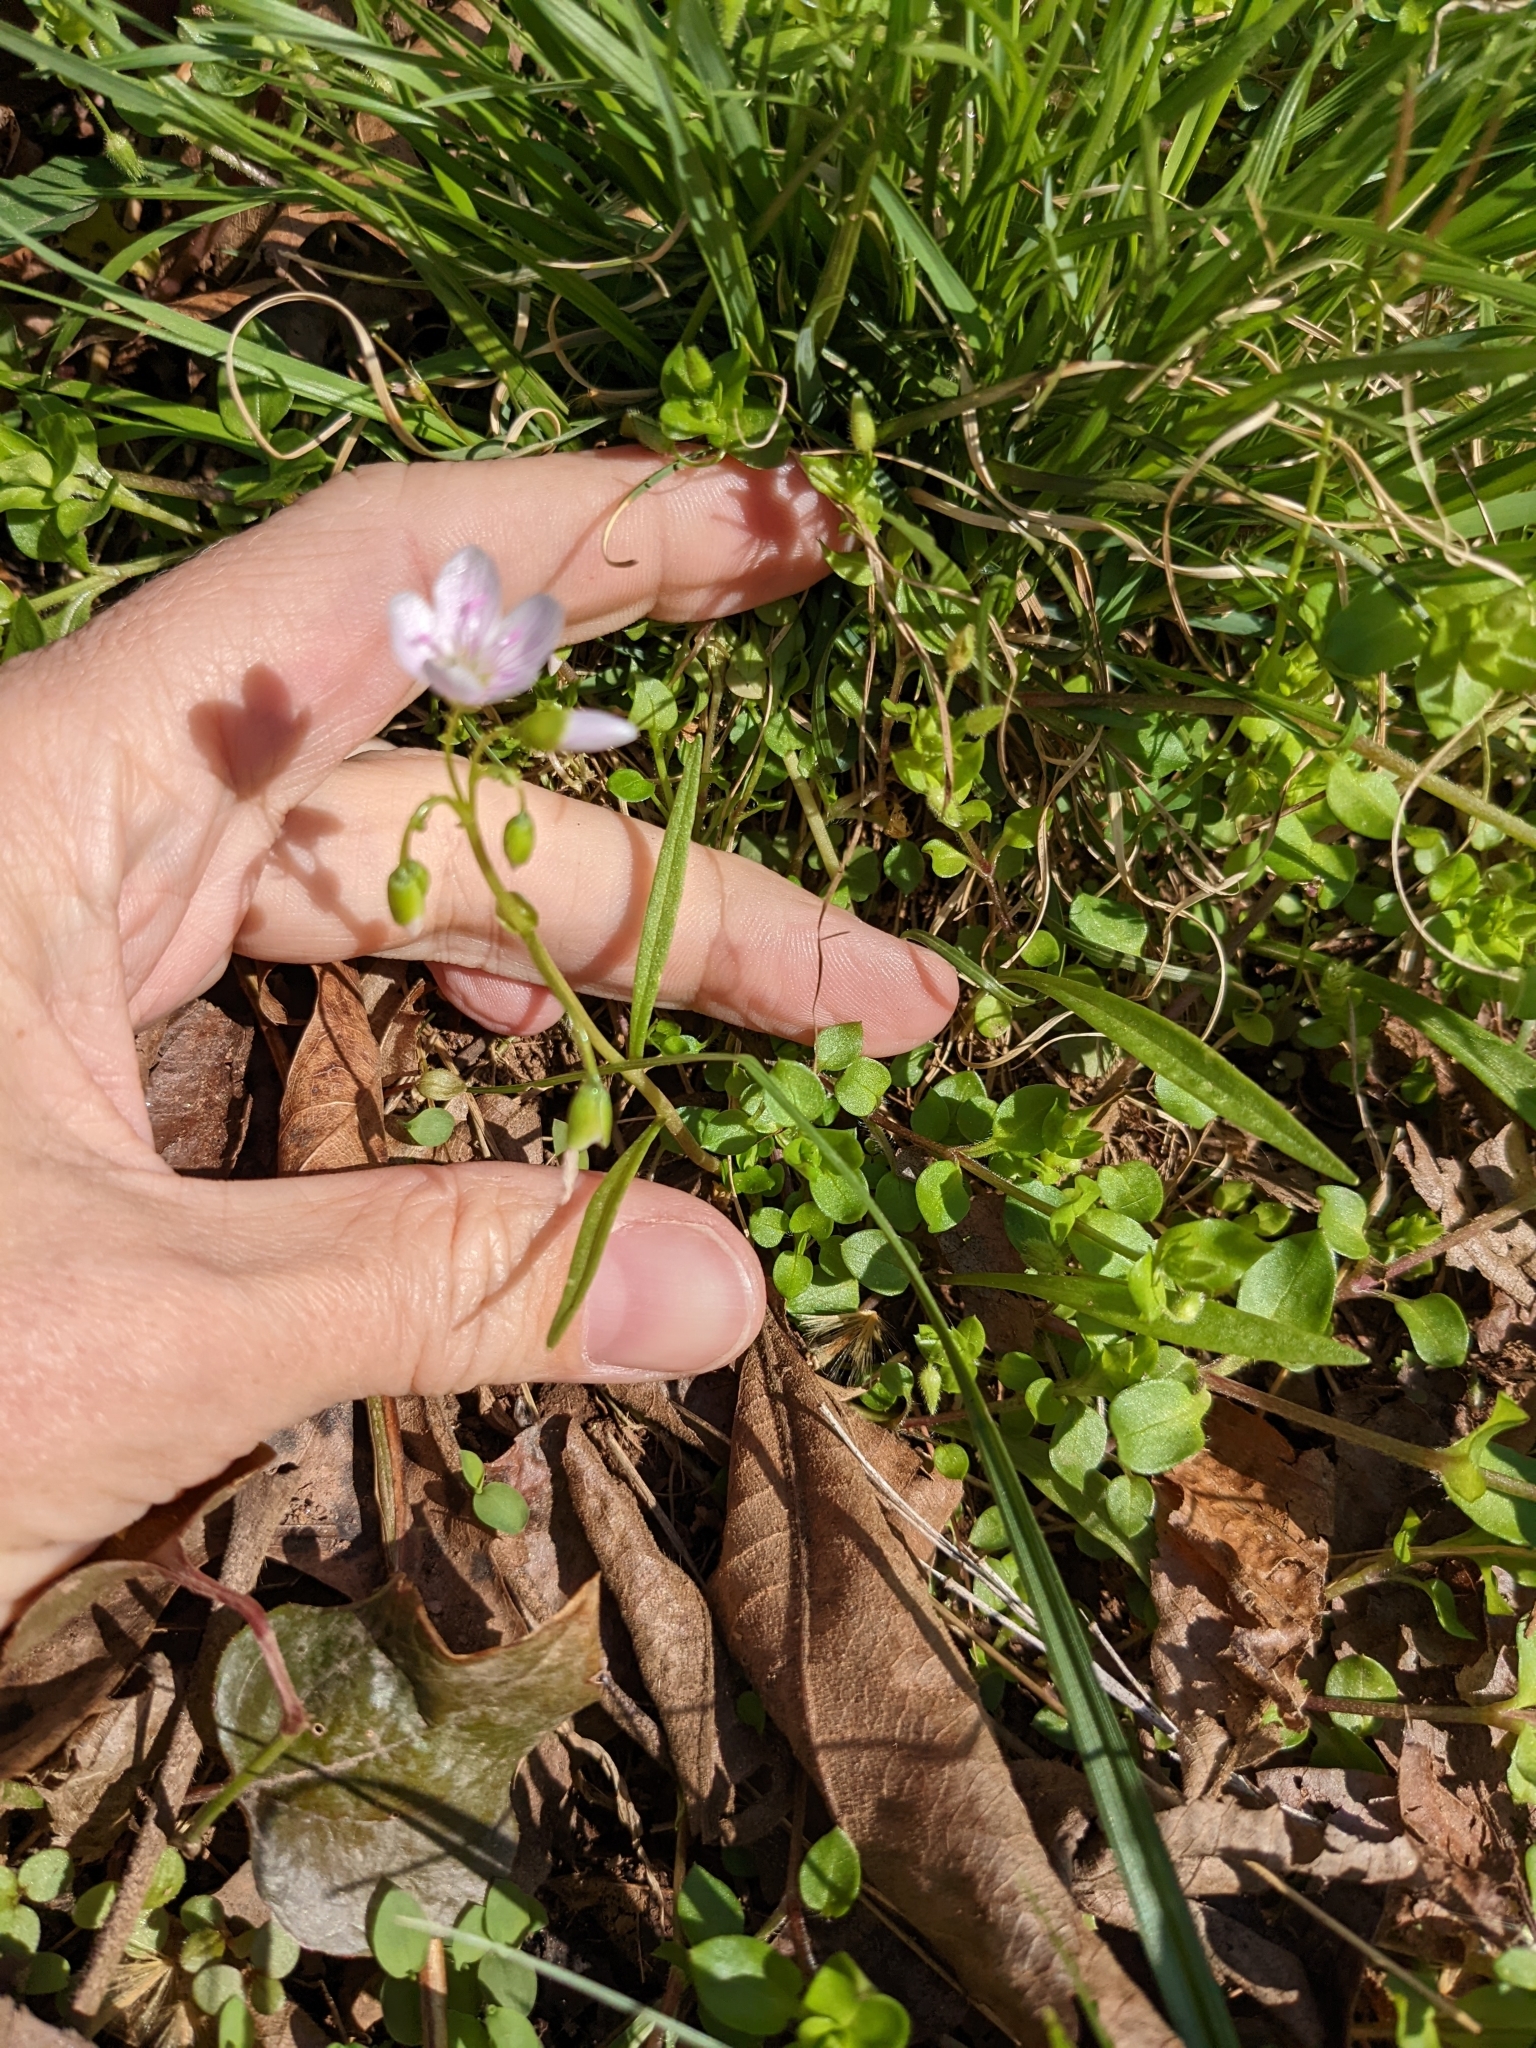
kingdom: Plantae
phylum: Tracheophyta
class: Magnoliopsida
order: Caryophyllales
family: Montiaceae
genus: Claytonia
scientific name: Claytonia virginica
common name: Virginia springbeauty
